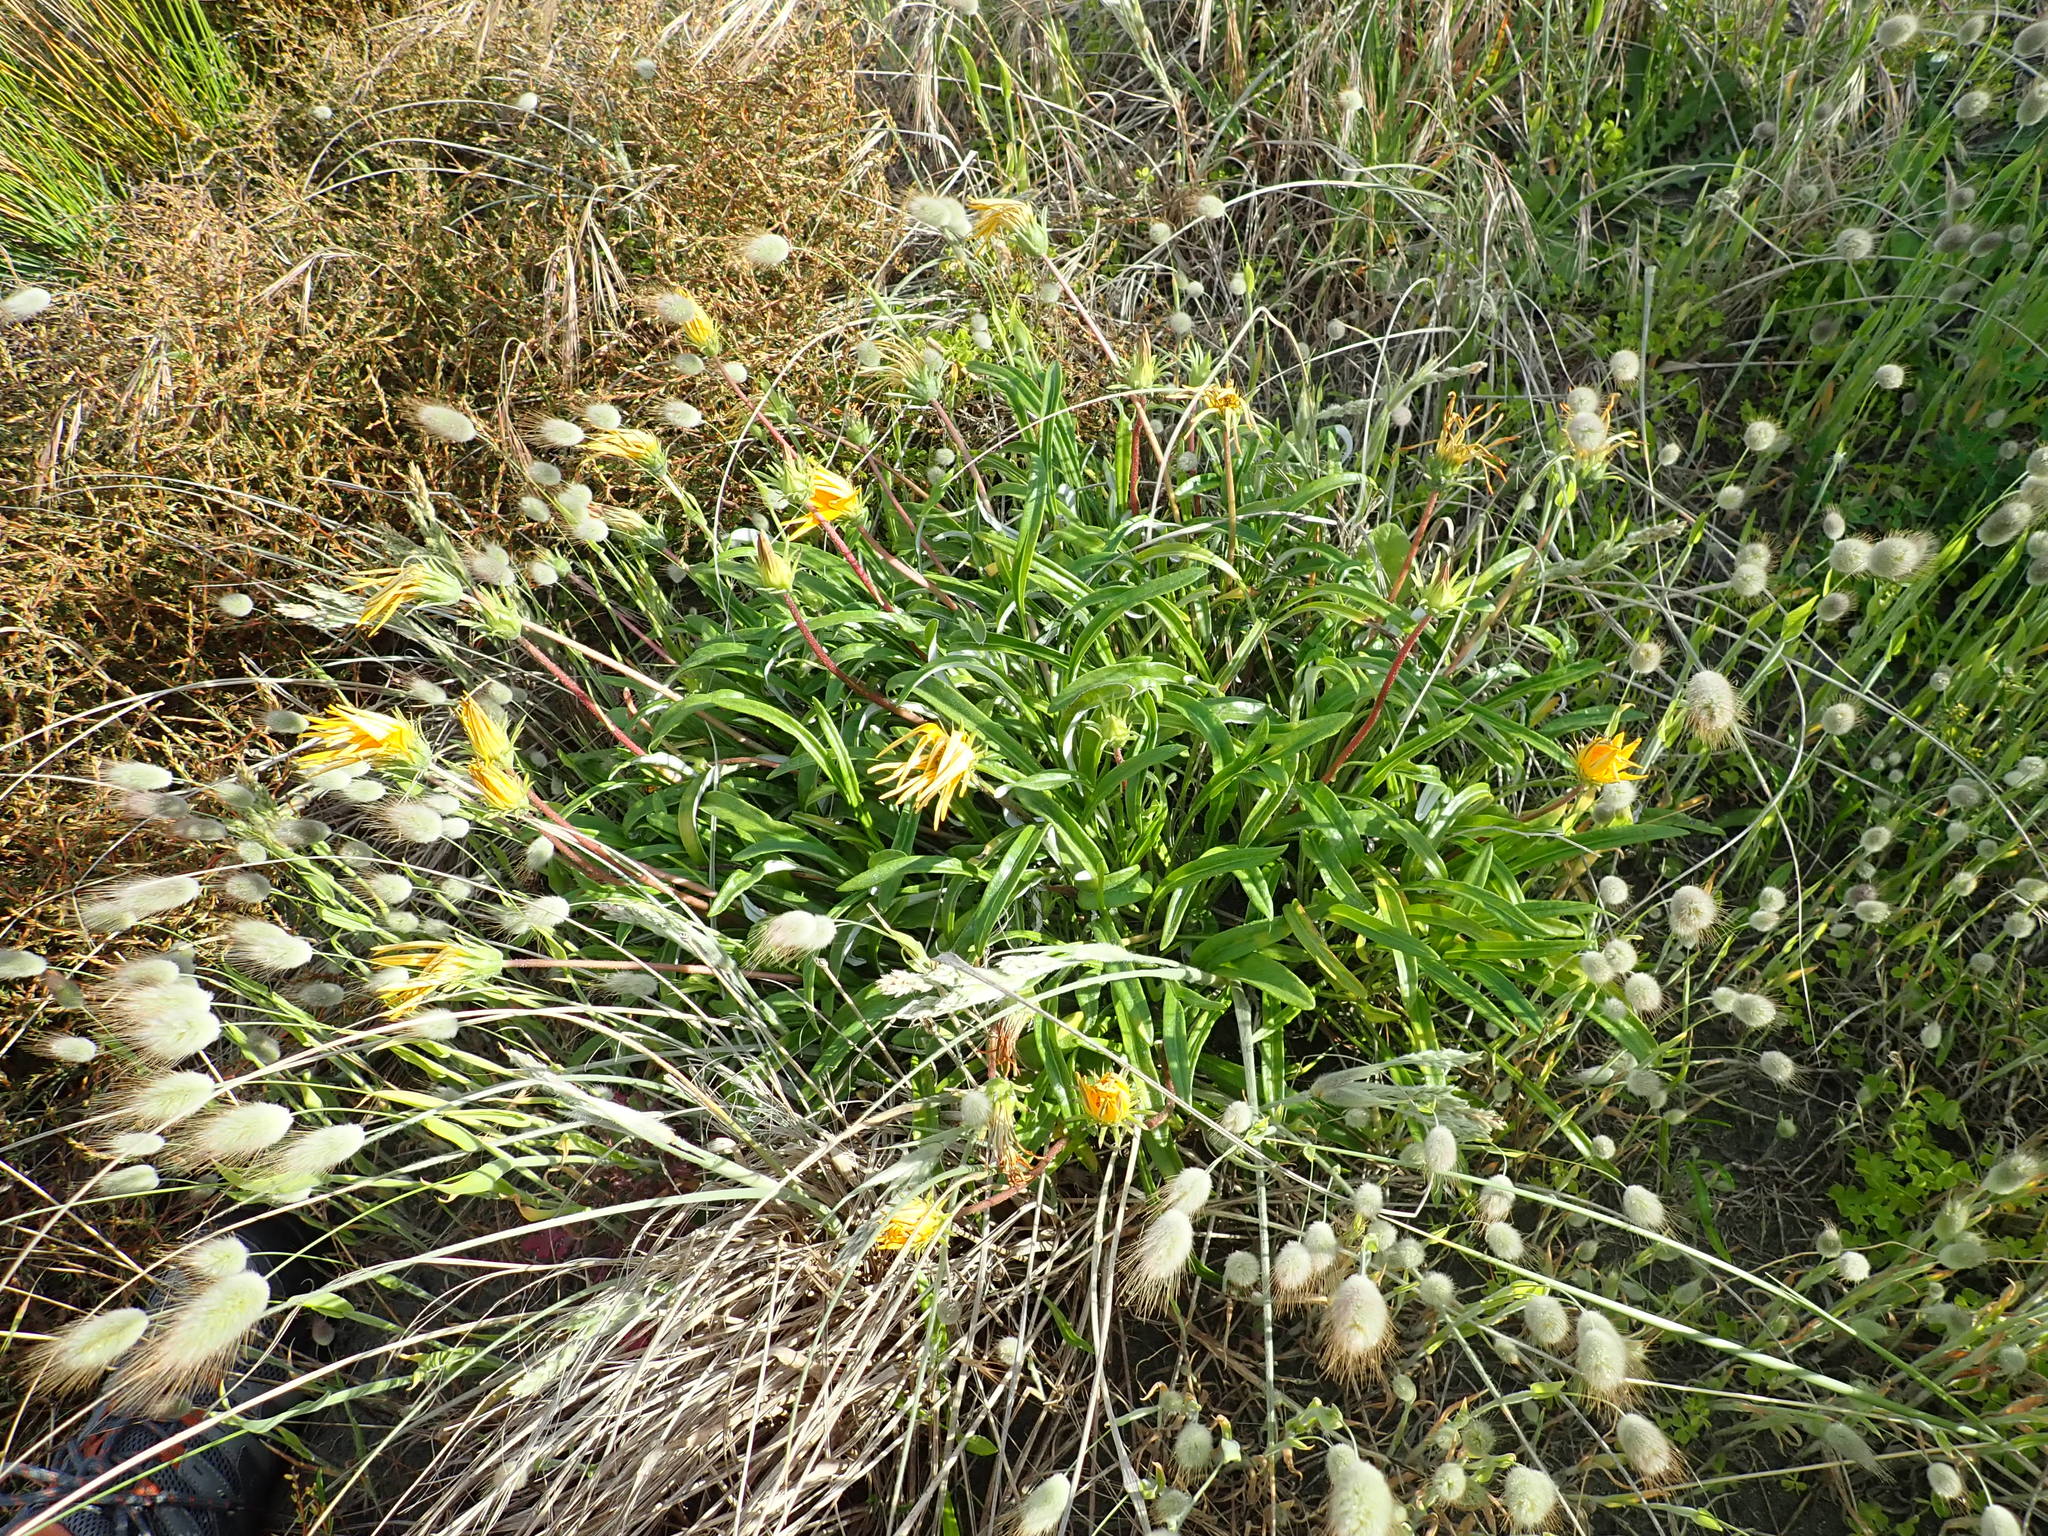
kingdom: Plantae
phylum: Tracheophyta
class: Magnoliopsida
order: Asterales
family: Asteraceae
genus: Gazania
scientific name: Gazania splendens
